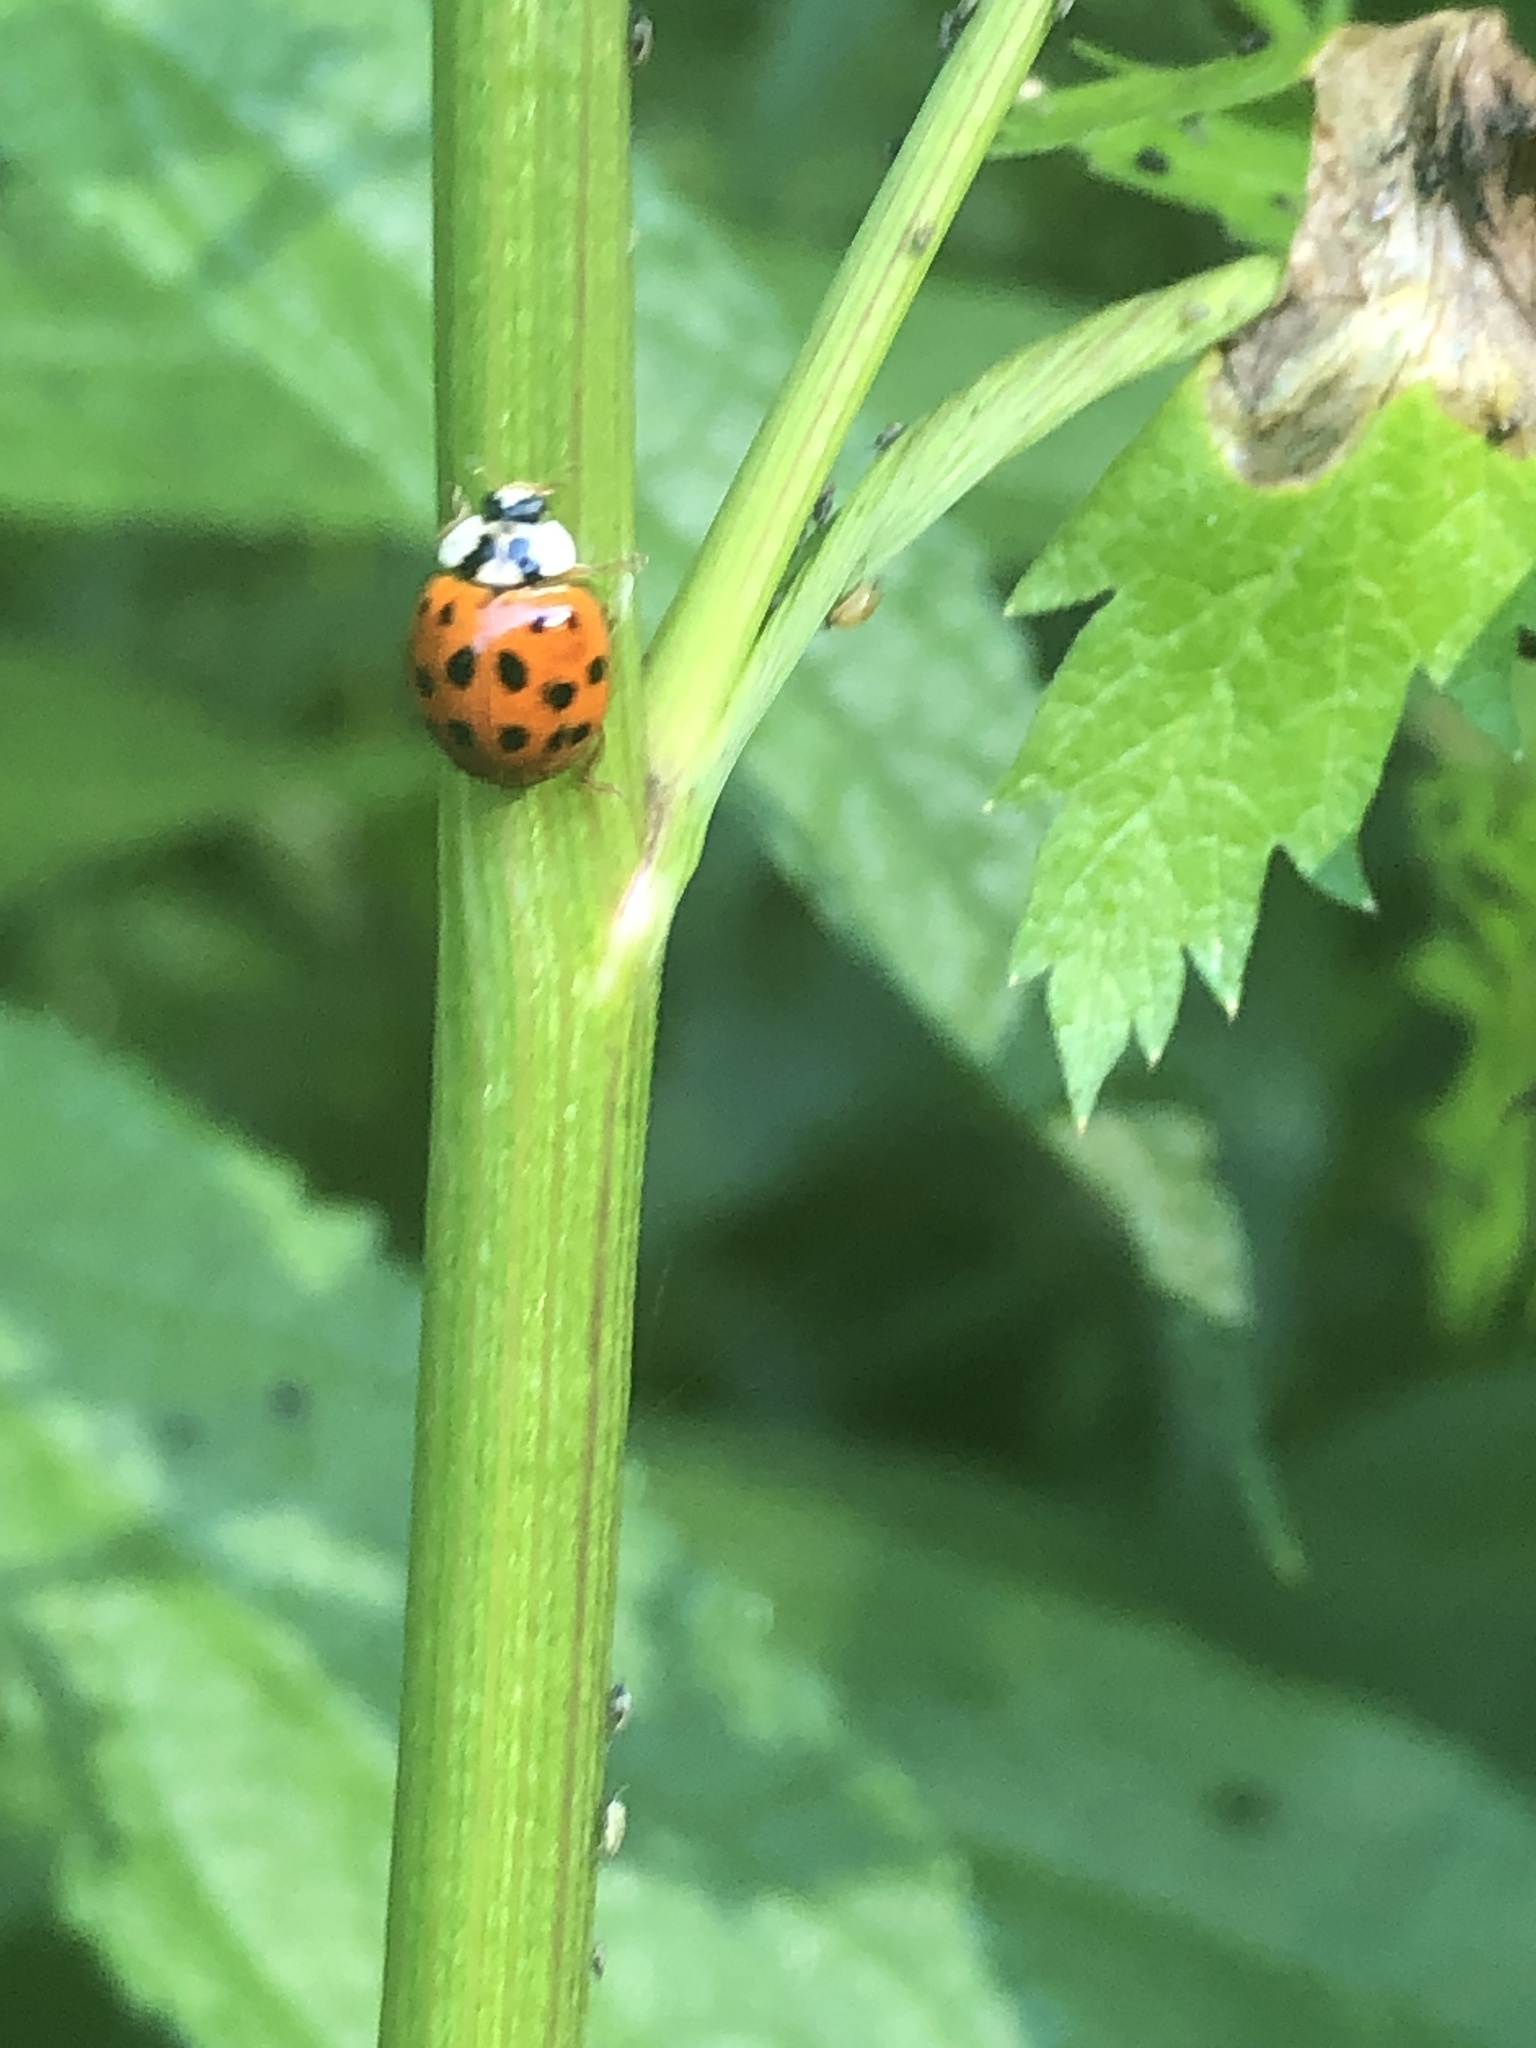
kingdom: Animalia
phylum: Arthropoda
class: Insecta
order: Coleoptera
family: Coccinellidae
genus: Harmonia
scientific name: Harmonia axyridis
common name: Harlequin ladybird
